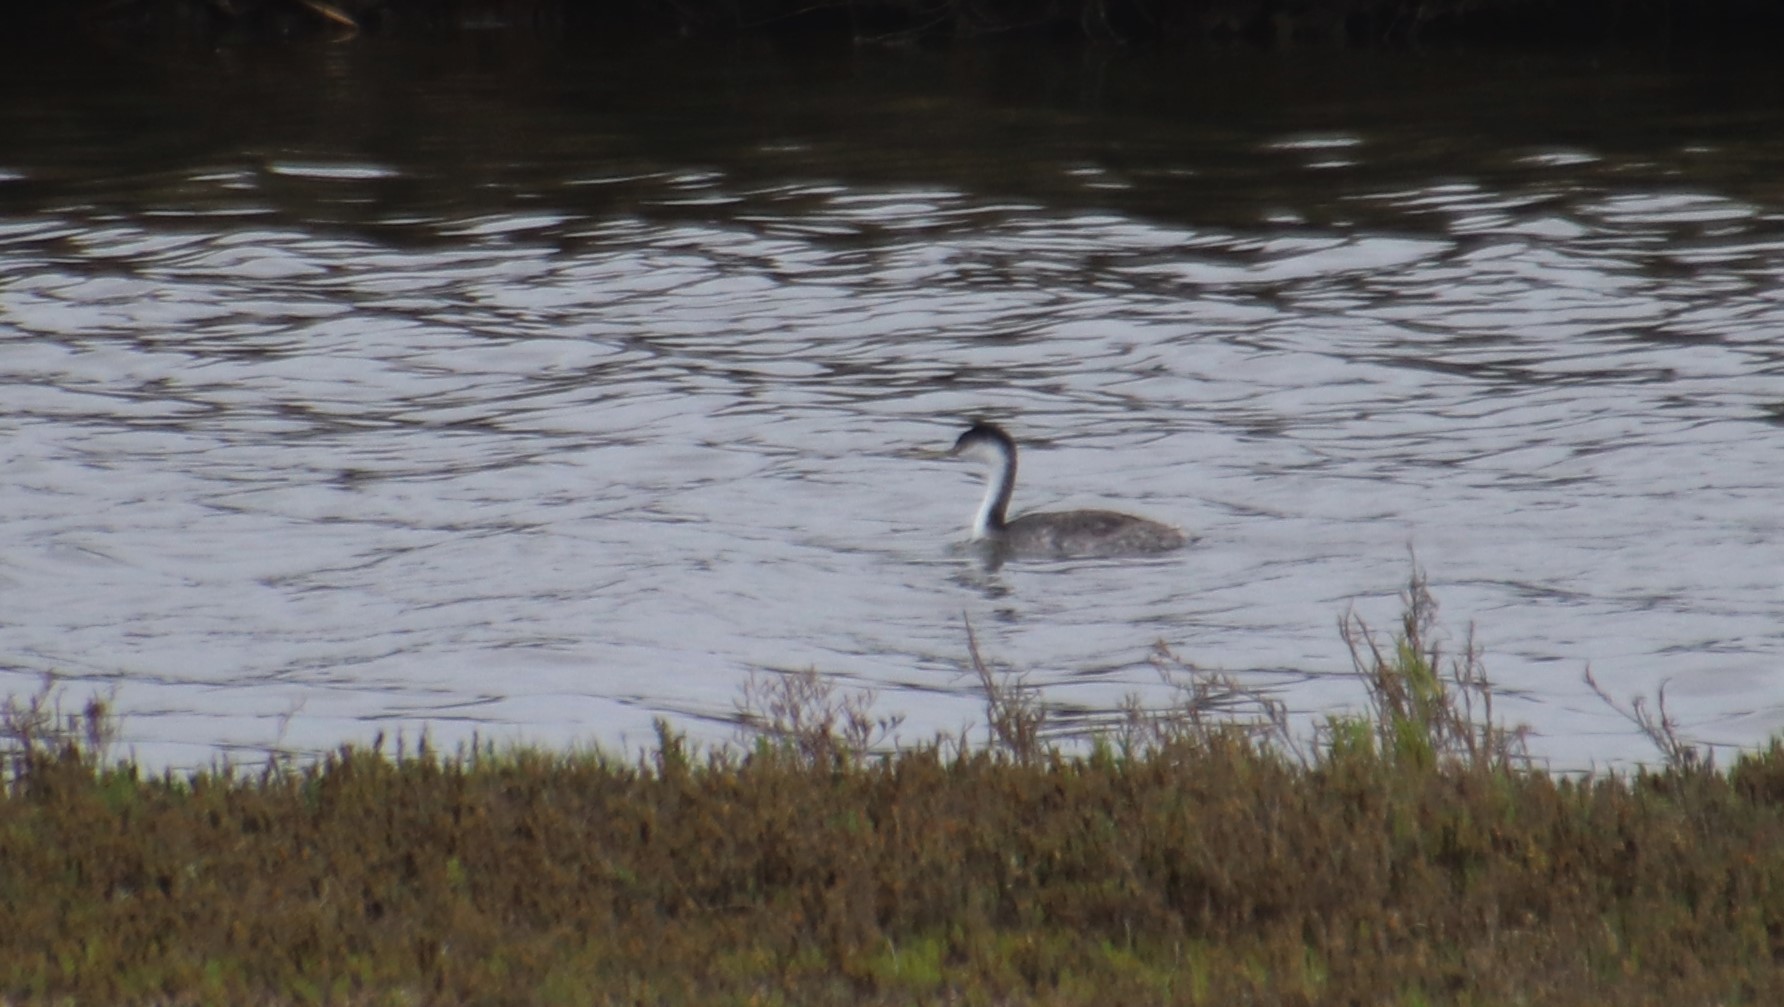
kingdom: Animalia
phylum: Chordata
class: Aves
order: Podicipediformes
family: Podicipedidae
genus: Aechmophorus
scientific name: Aechmophorus occidentalis
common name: Western grebe
